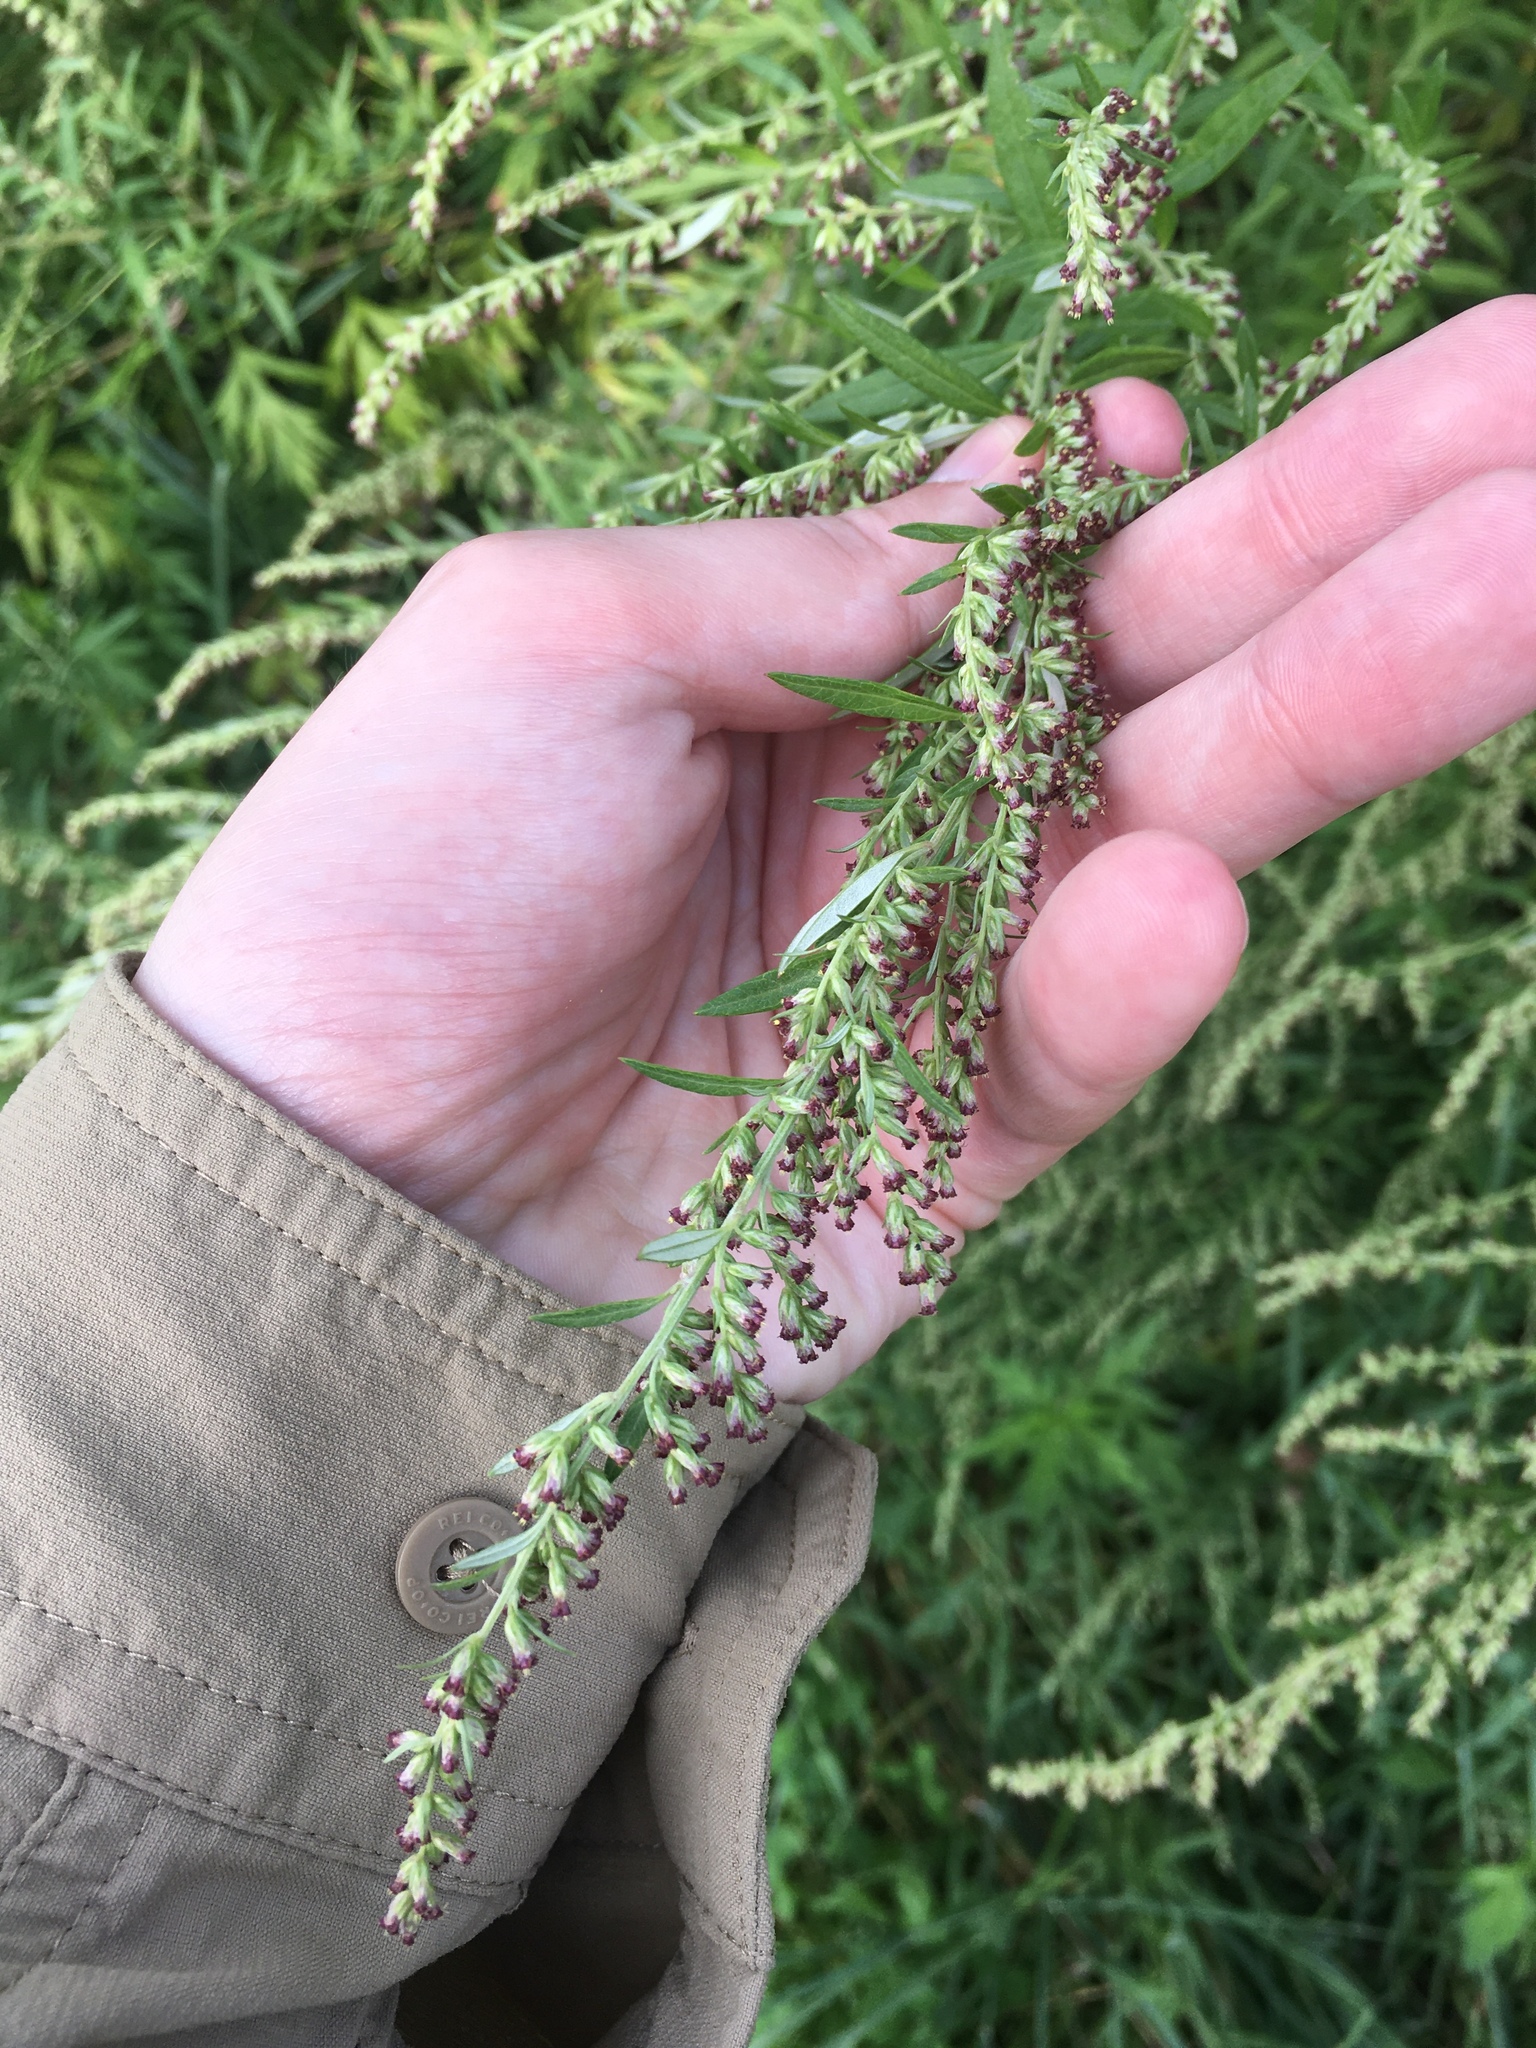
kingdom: Plantae
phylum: Tracheophyta
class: Magnoliopsida
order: Asterales
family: Asteraceae
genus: Artemisia
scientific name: Artemisia vulgaris
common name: Mugwort
